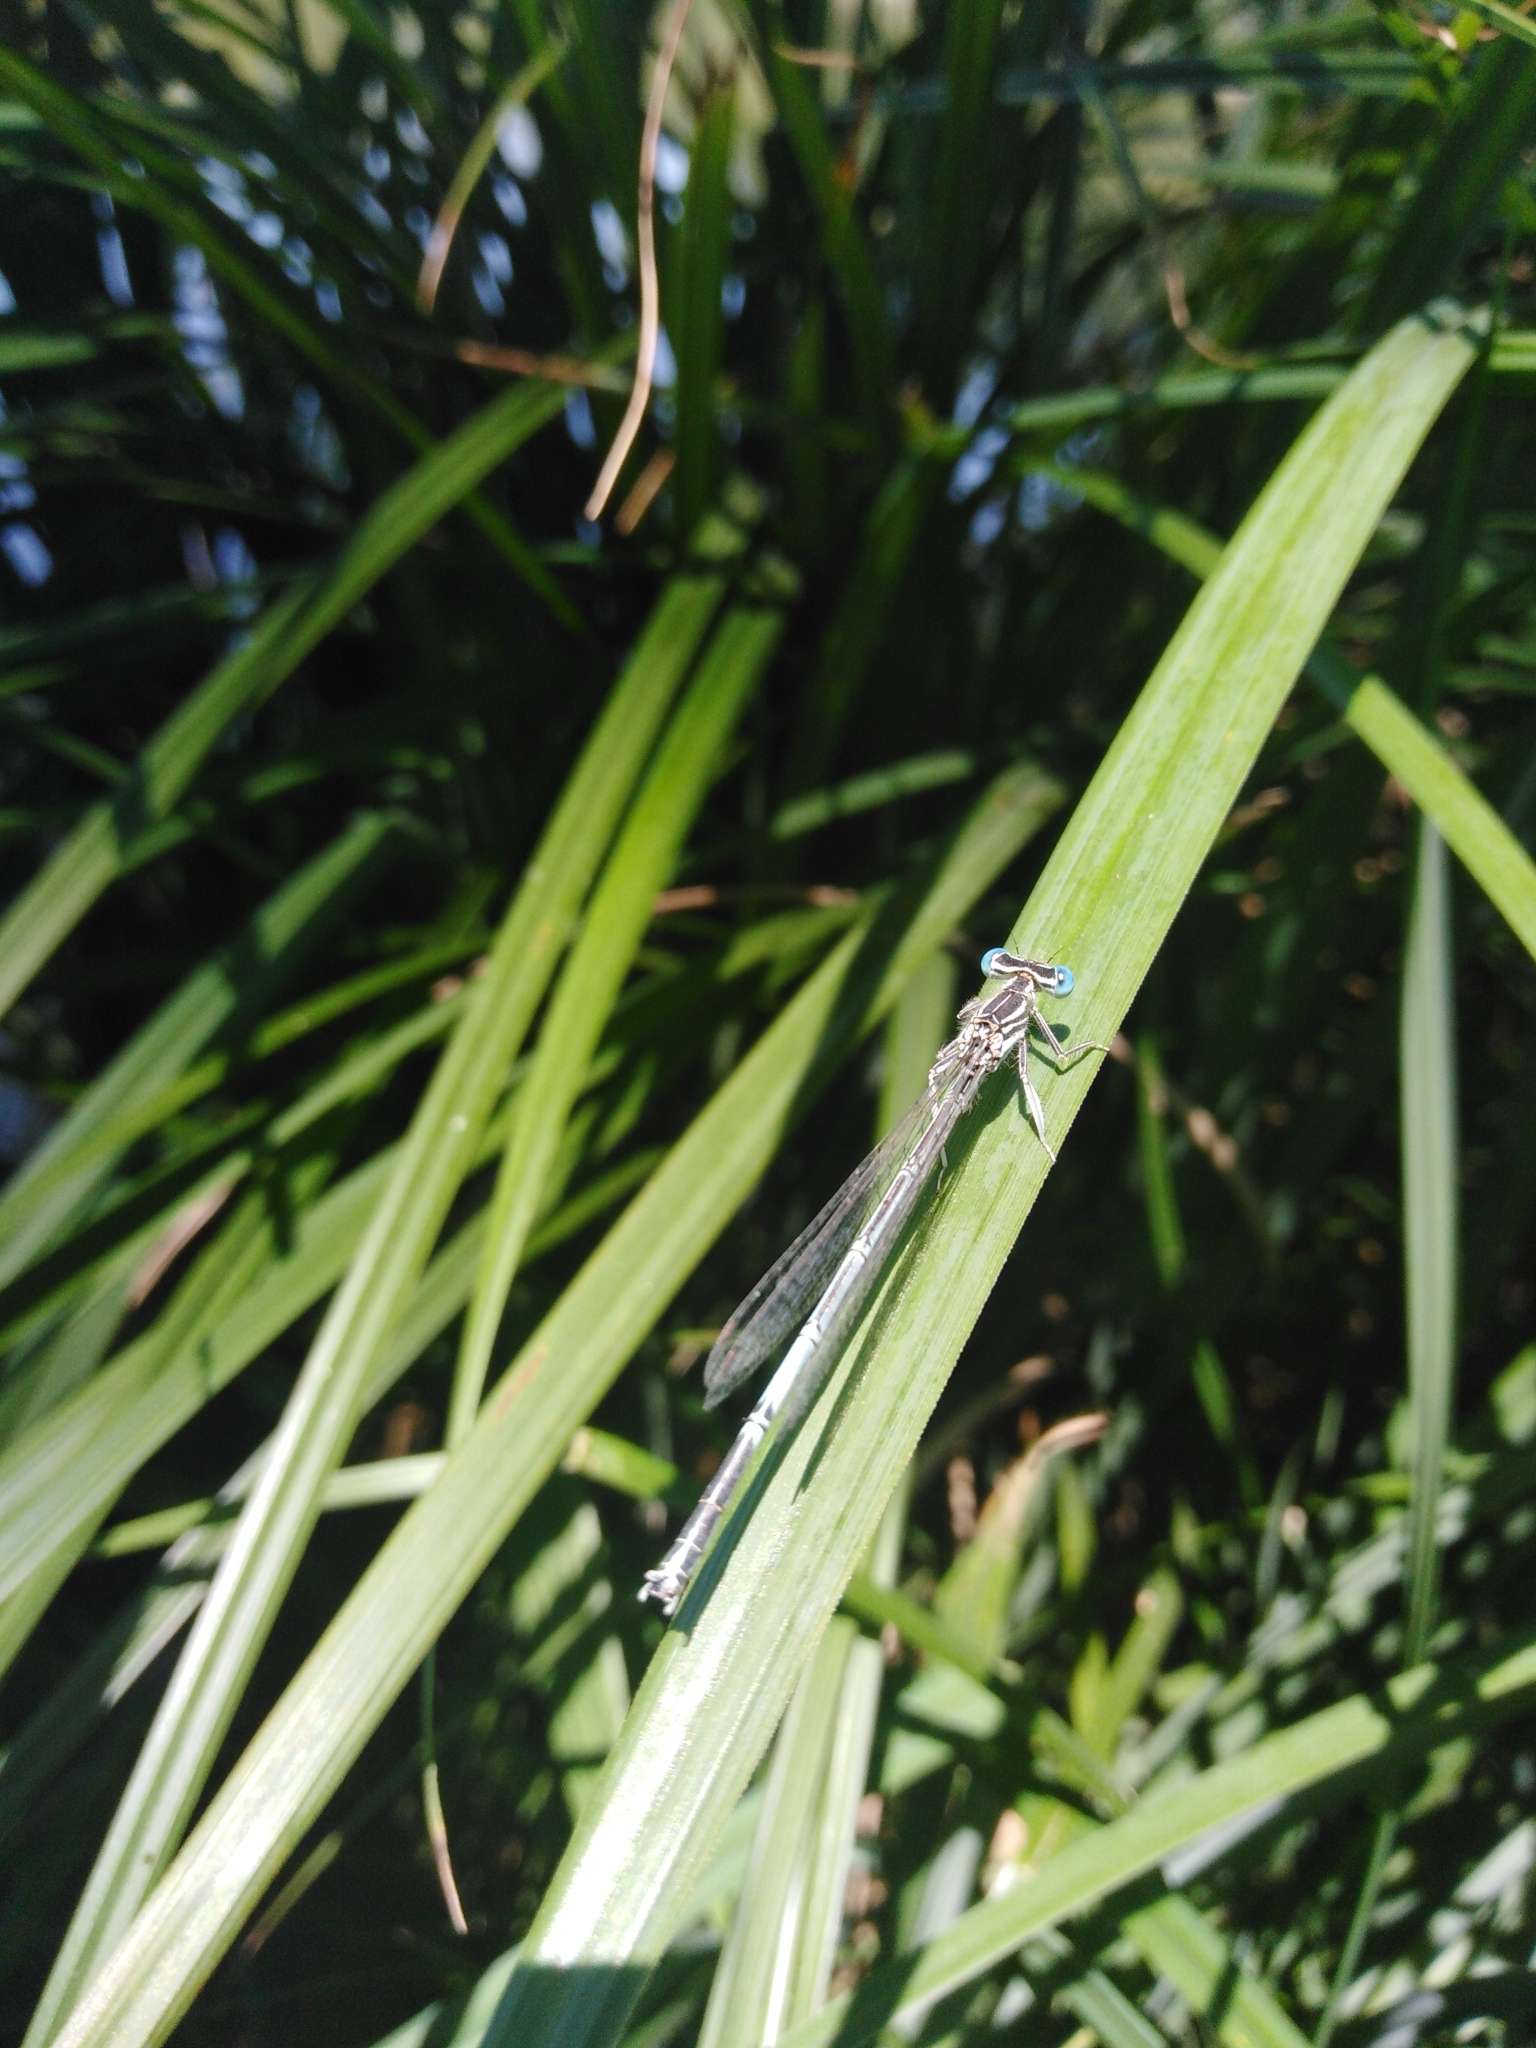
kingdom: Animalia
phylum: Arthropoda
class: Insecta
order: Odonata
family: Platycnemididae
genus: Platycnemis
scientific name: Platycnemis pennipes
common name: White-legged damselfly
